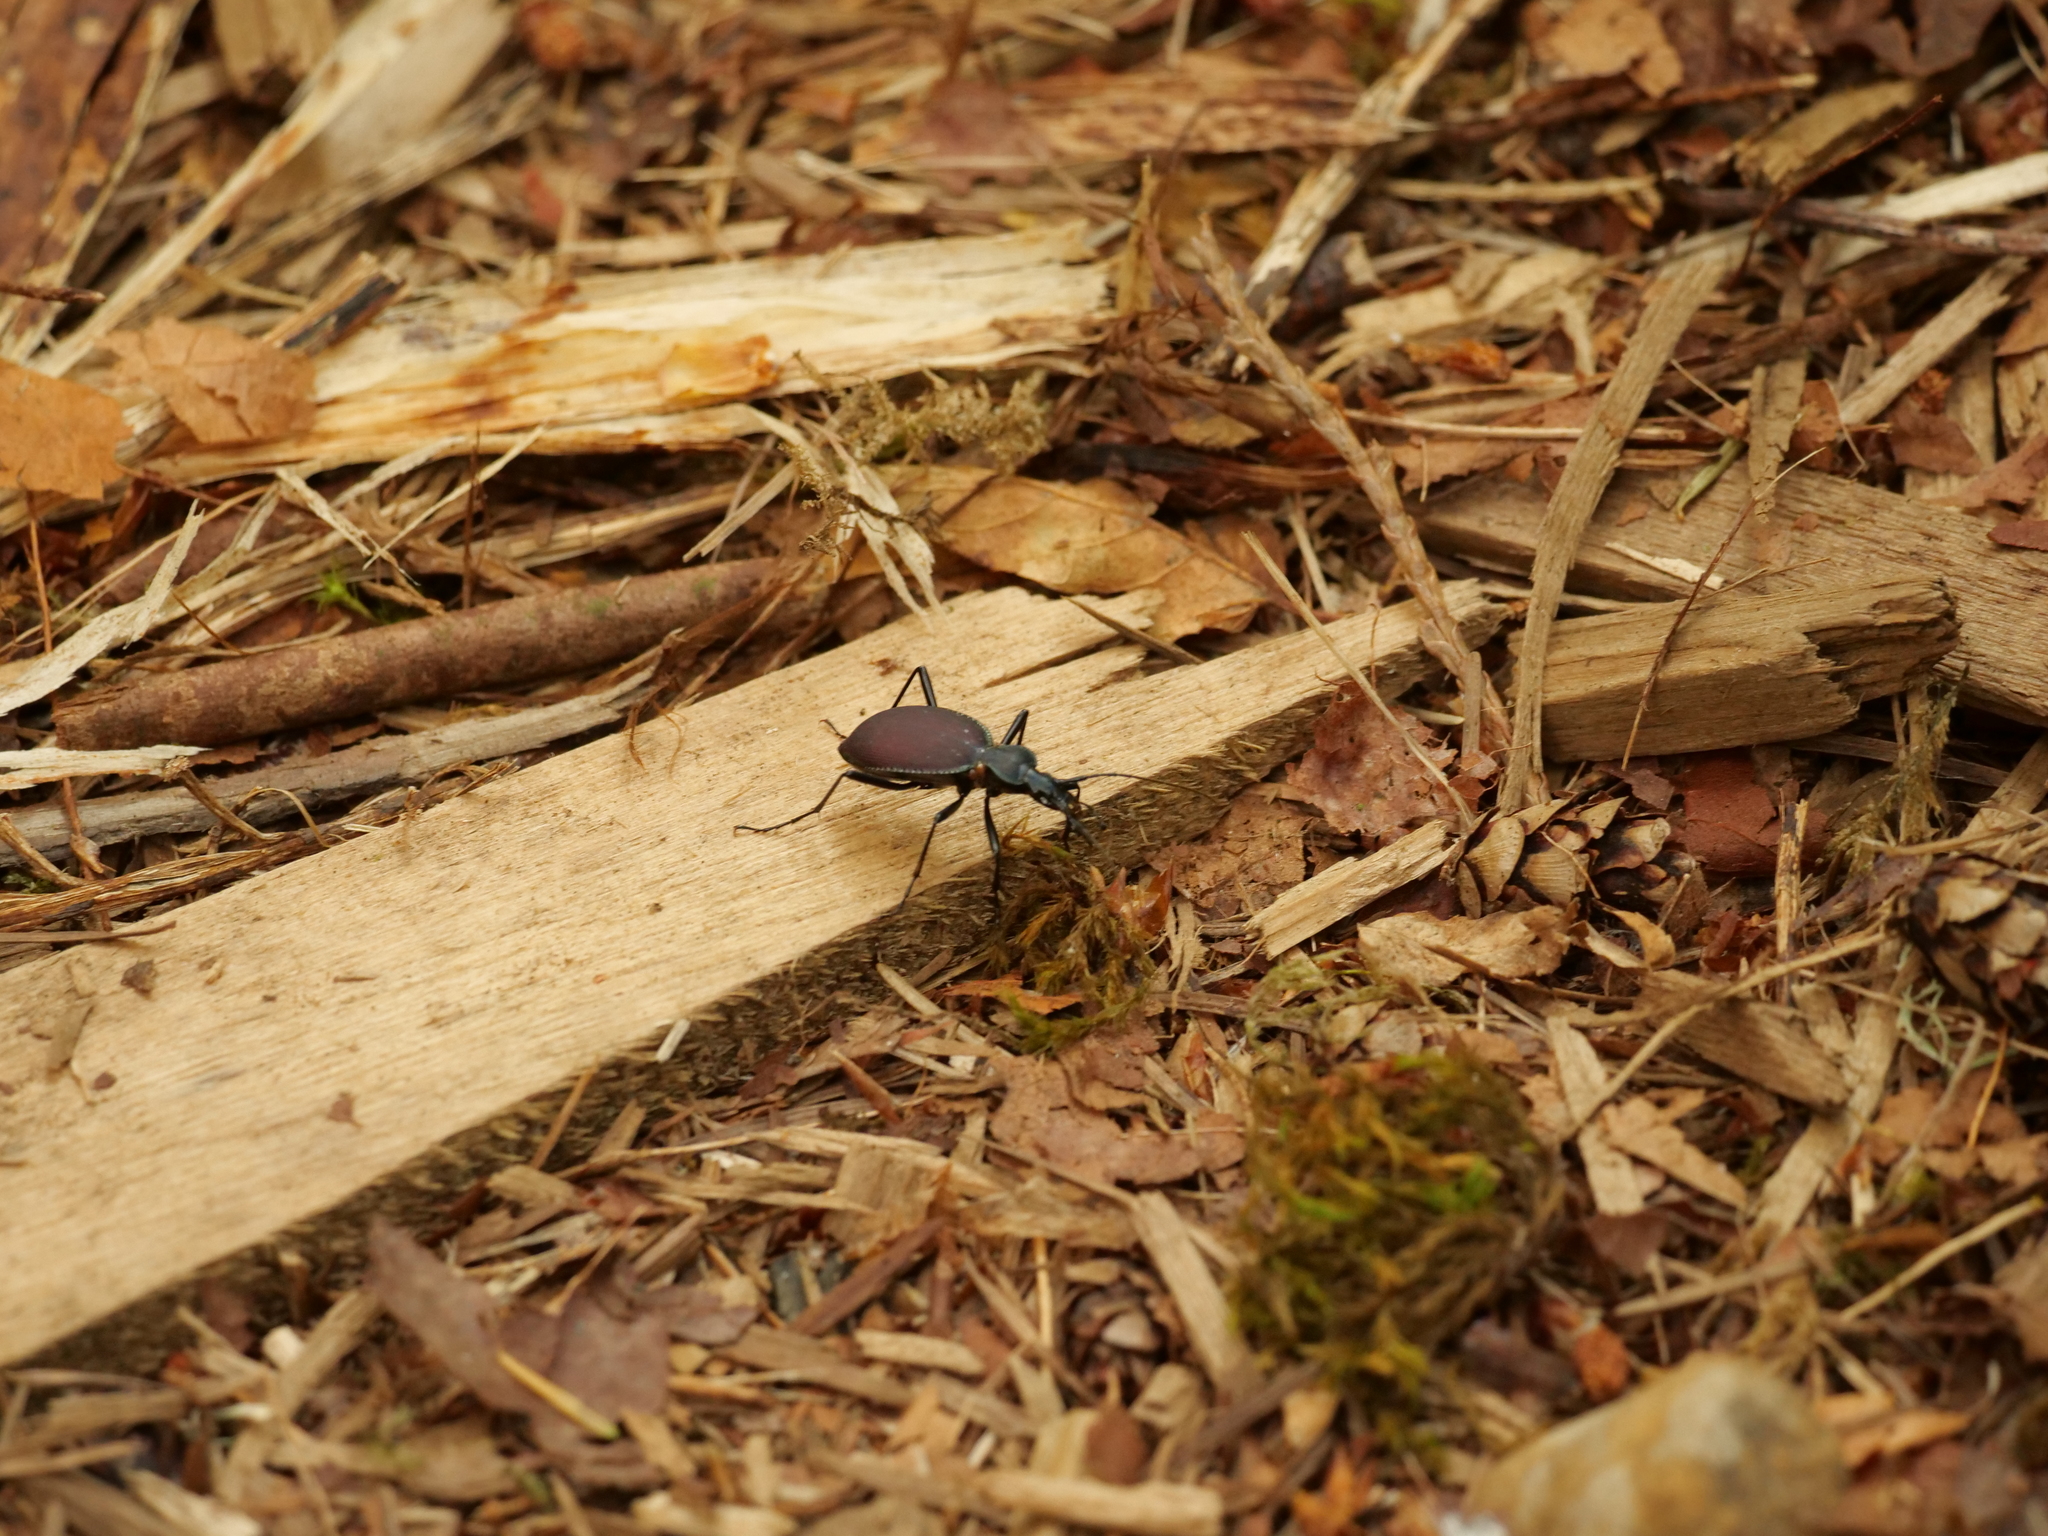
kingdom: Animalia
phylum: Arthropoda
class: Insecta
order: Coleoptera
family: Carabidae
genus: Scaphinotus
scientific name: Scaphinotus angusticollis
